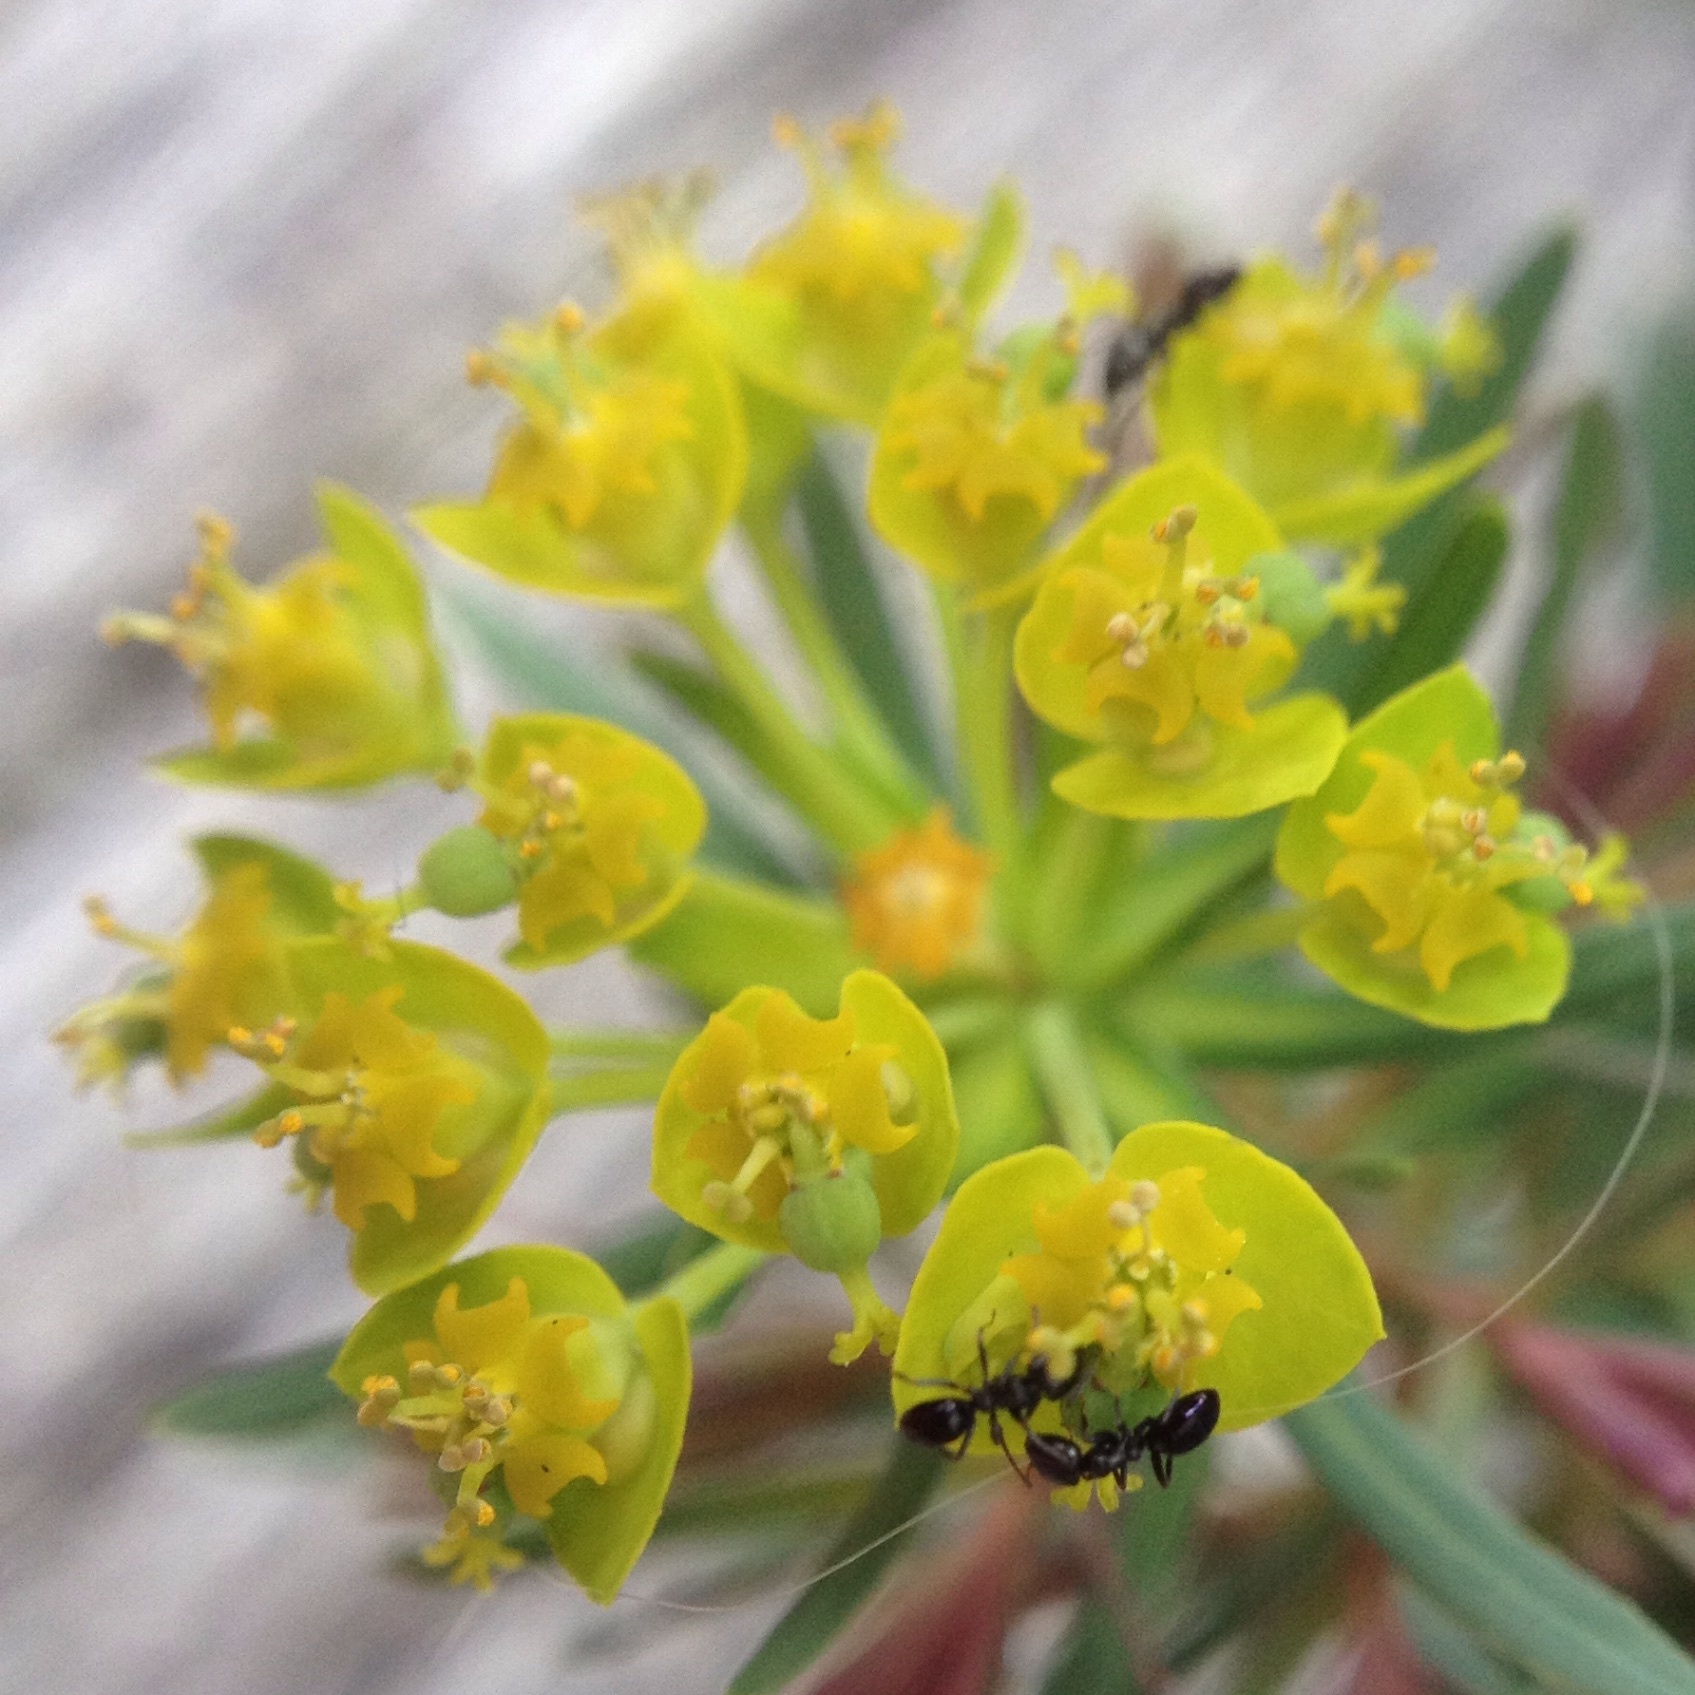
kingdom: Animalia
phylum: Arthropoda
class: Insecta
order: Hymenoptera
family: Formicidae
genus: Ochetellus
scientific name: Ochetellus glaber
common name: Ant
